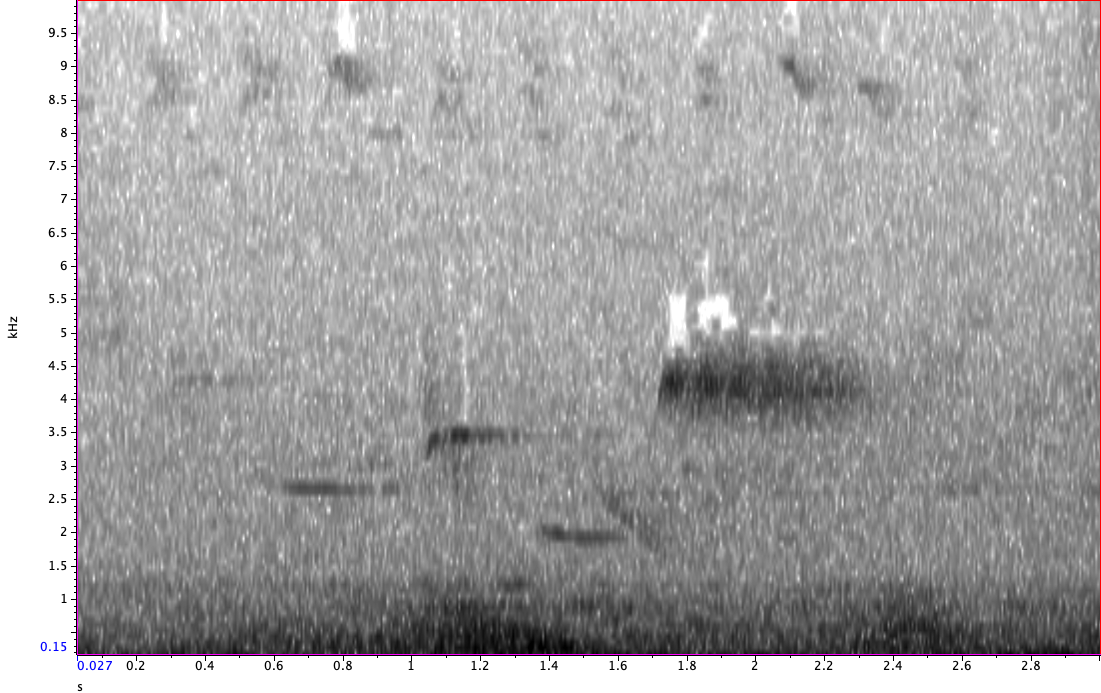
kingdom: Animalia
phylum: Chordata
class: Aves
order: Passeriformes
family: Passerellidae
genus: Pipilo
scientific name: Pipilo erythrophthalmus
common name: Eastern towhee
